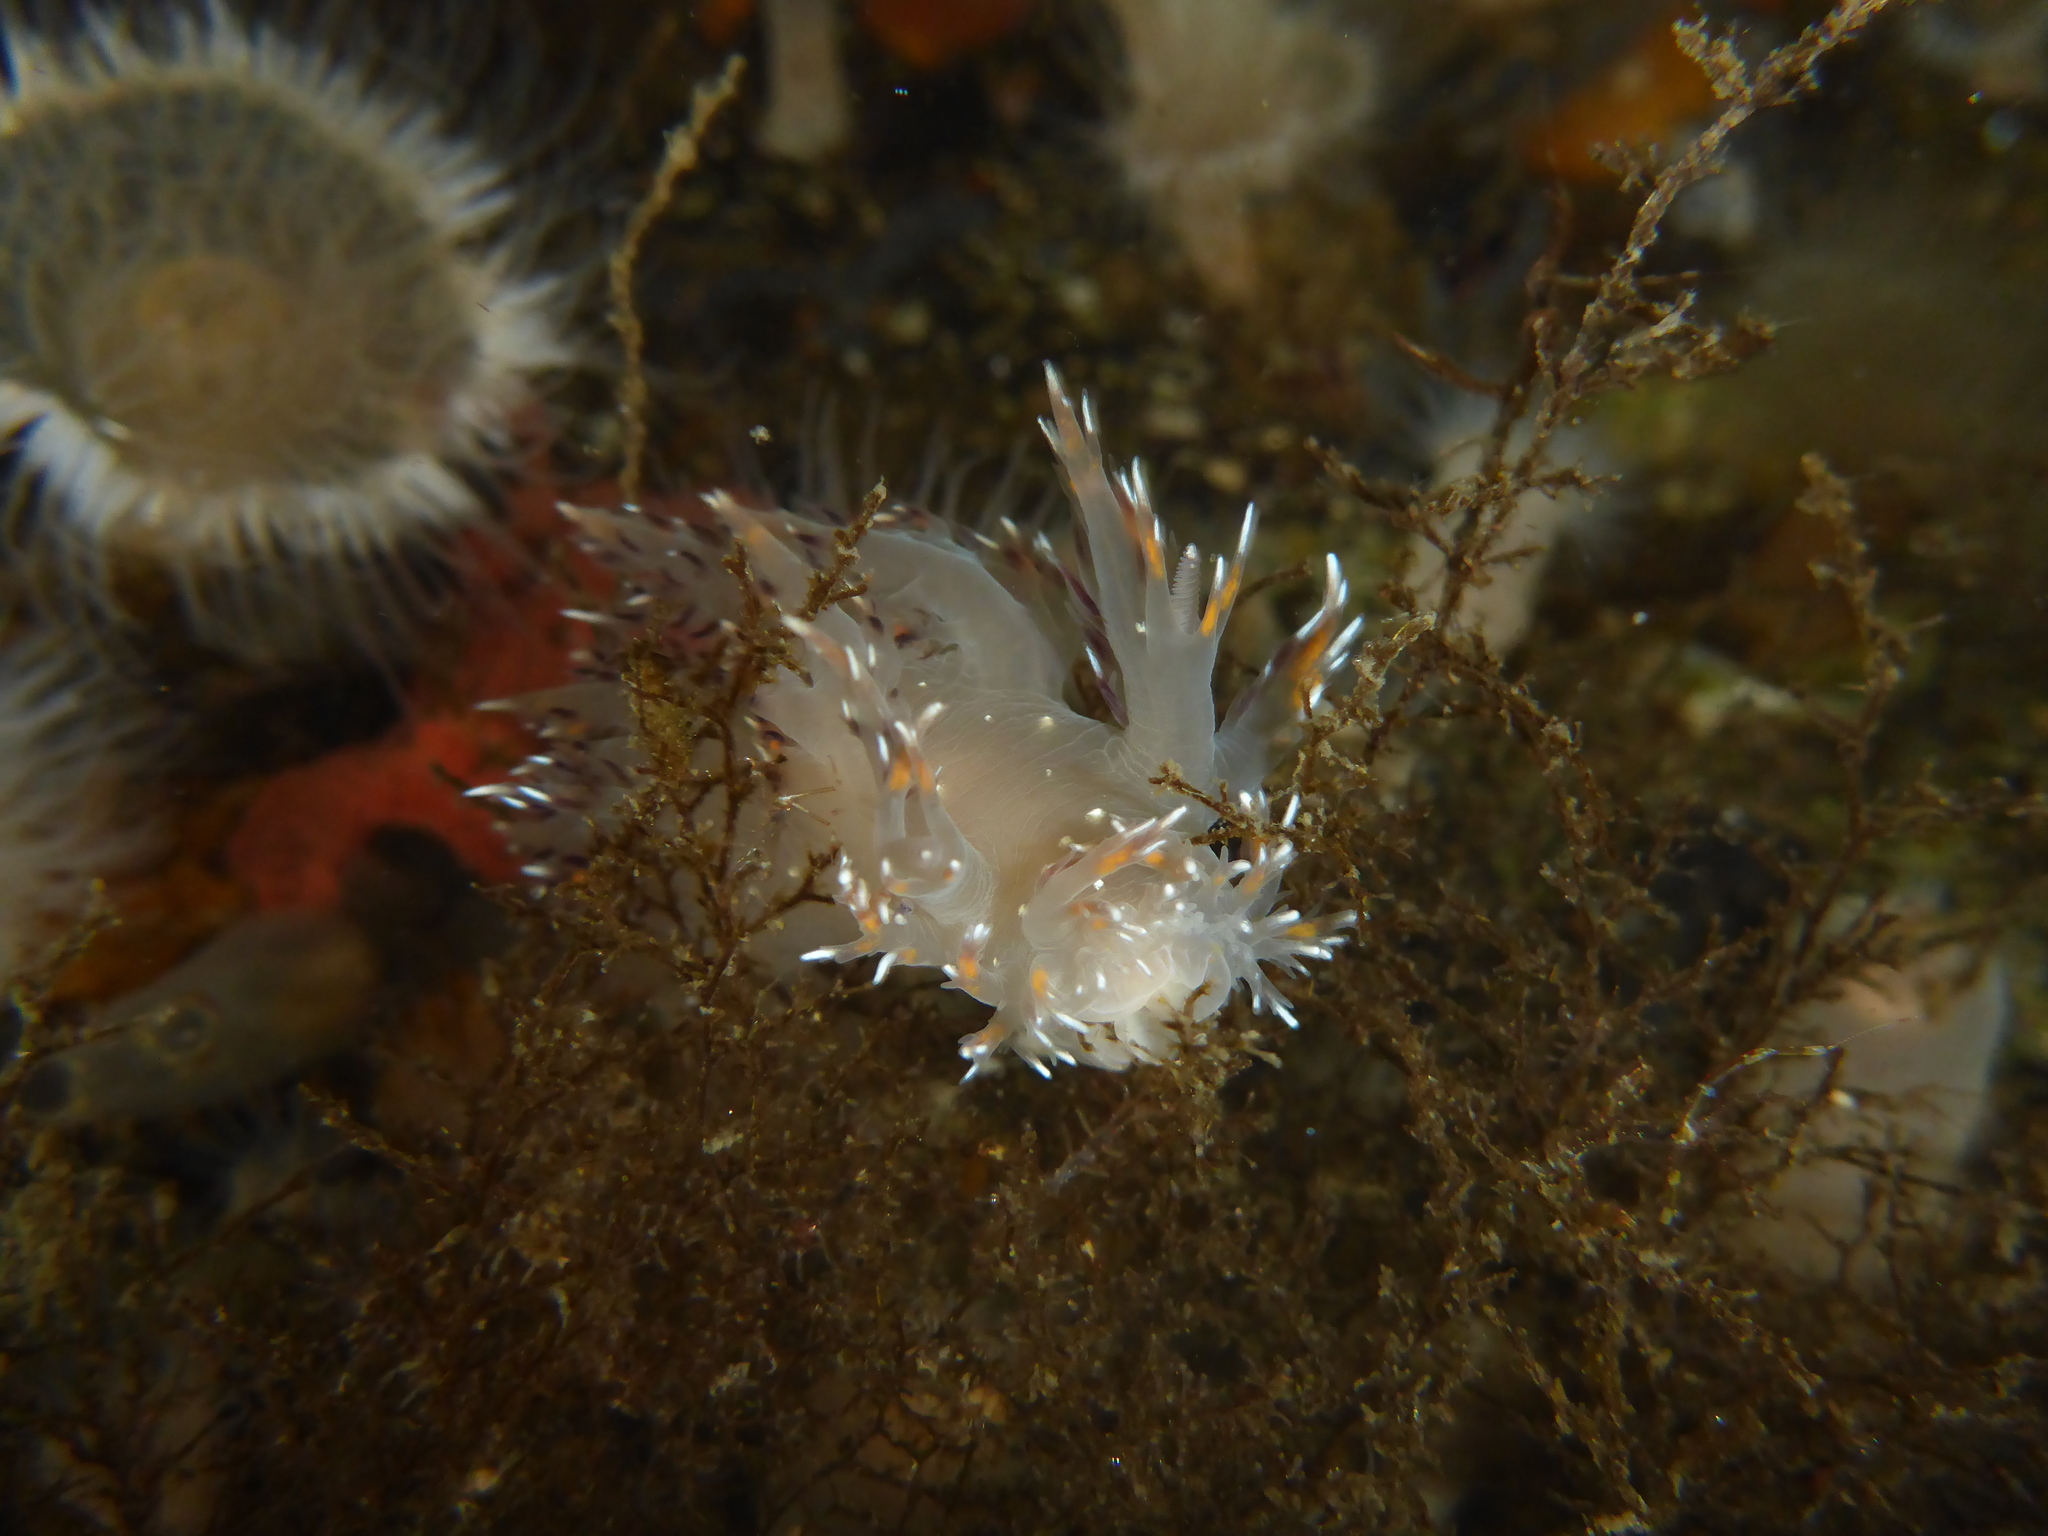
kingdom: Animalia
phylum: Mollusca
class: Gastropoda
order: Nudibranchia
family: Dendronotidae
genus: Dendronotus
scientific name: Dendronotus iris
